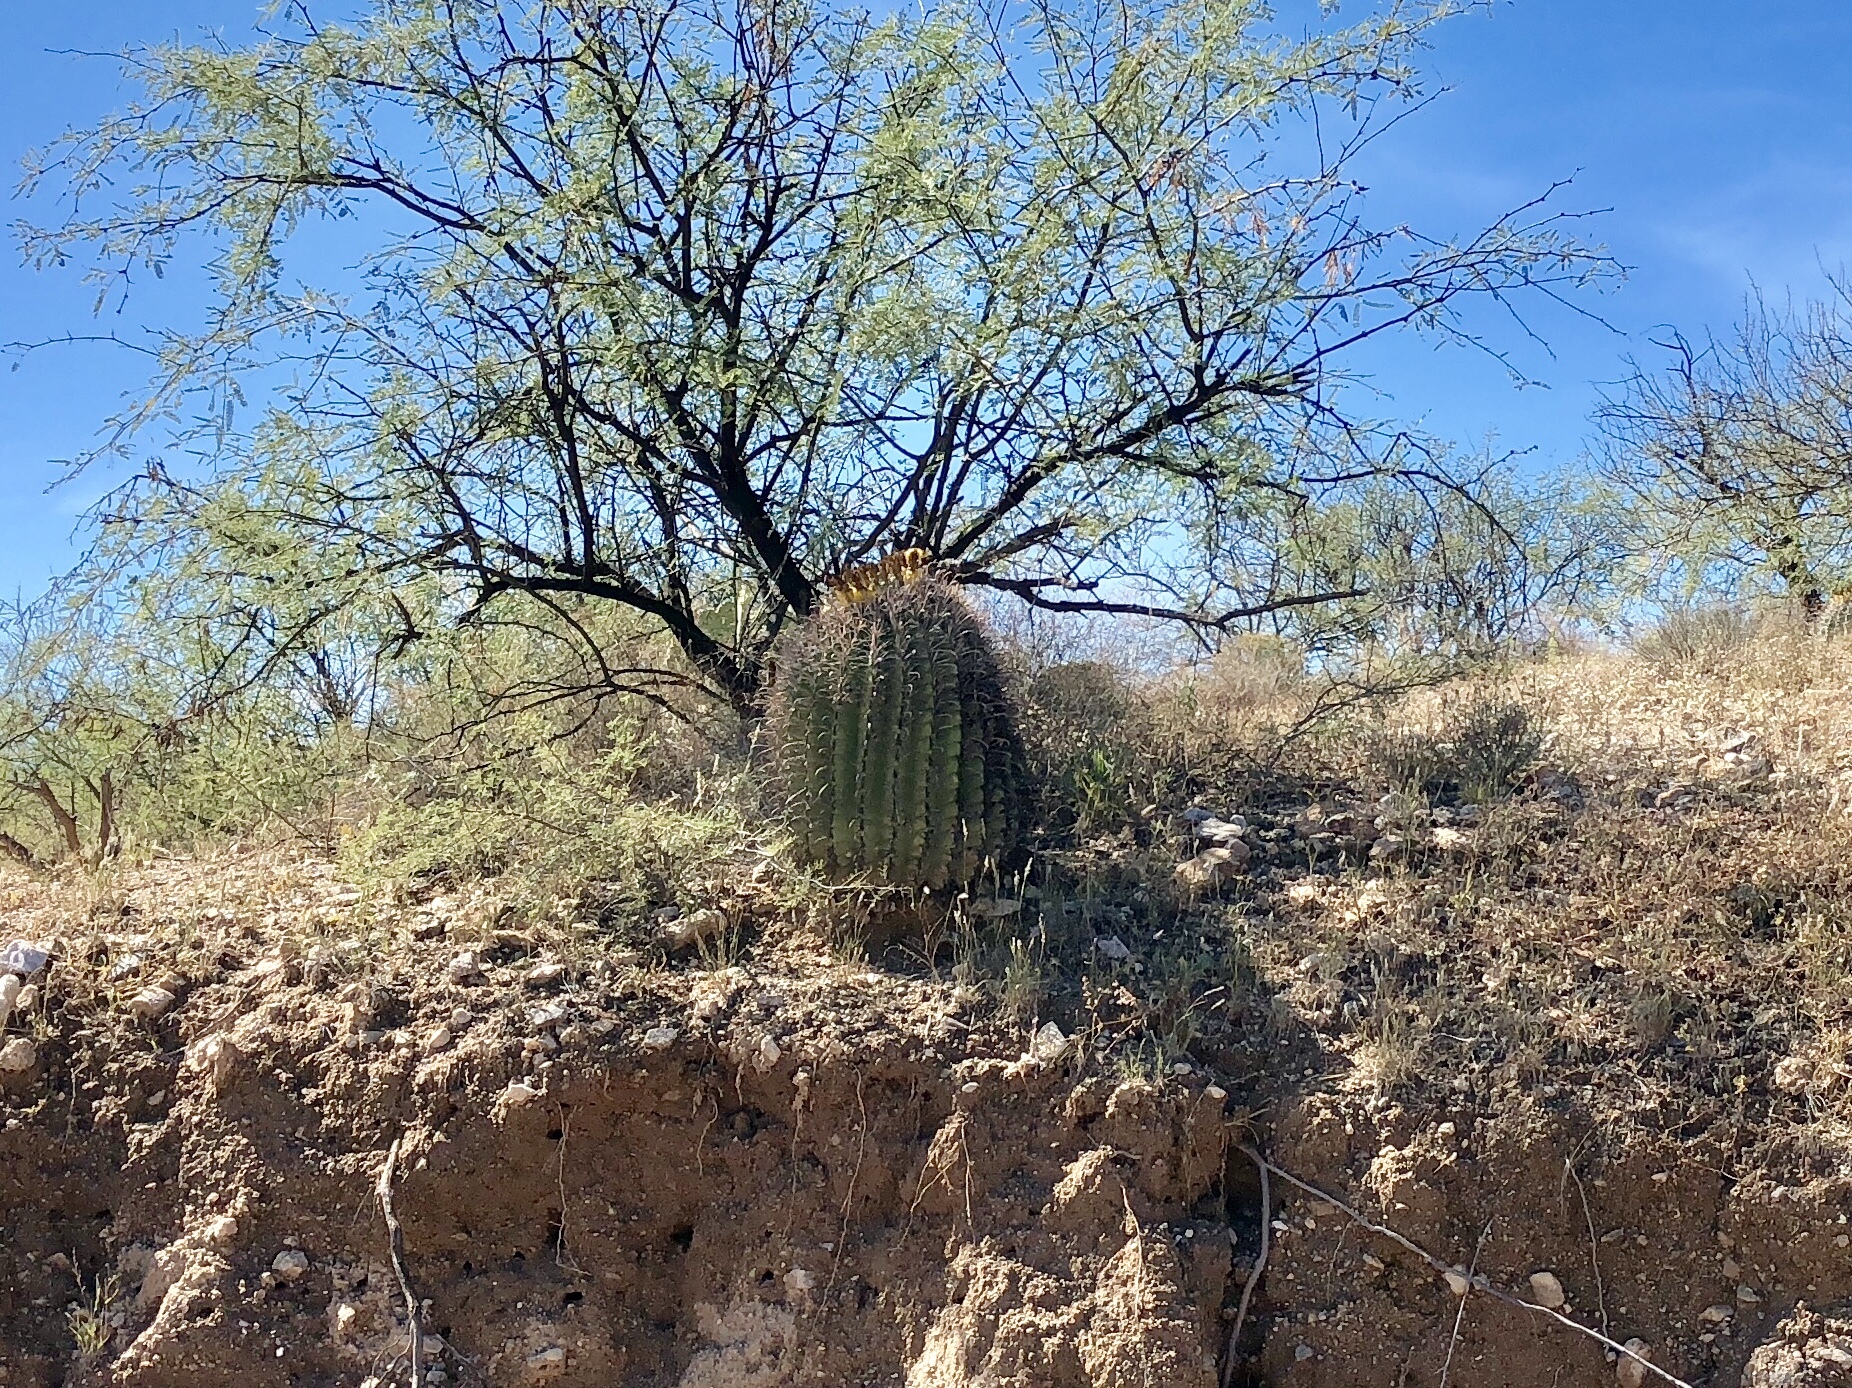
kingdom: Plantae
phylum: Tracheophyta
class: Magnoliopsida
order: Caryophyllales
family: Cactaceae
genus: Ferocactus
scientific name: Ferocactus wislizeni
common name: Candy barrel cactus
